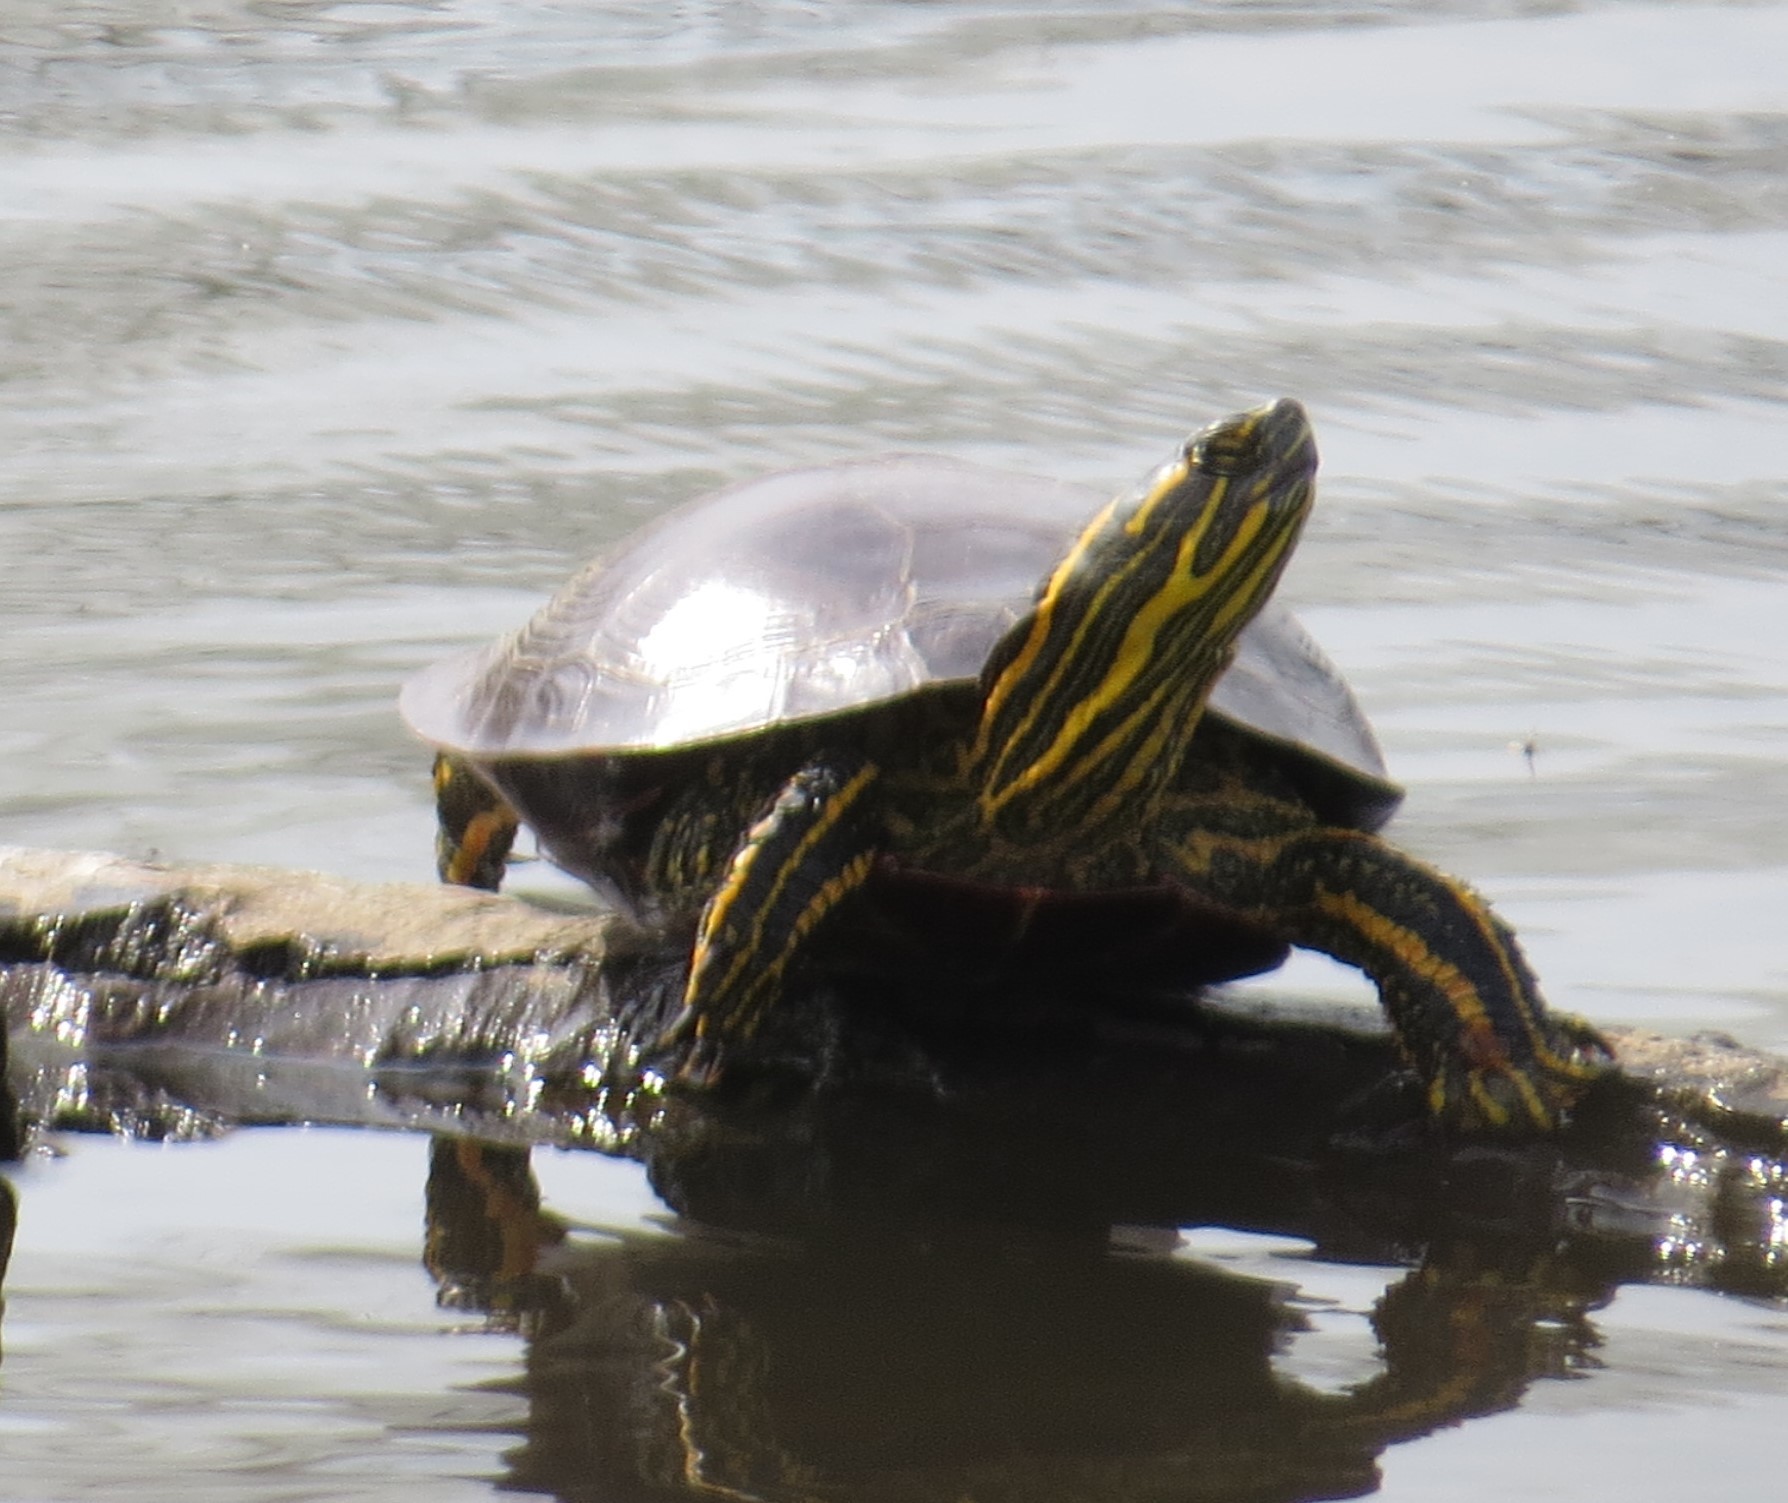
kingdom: Animalia
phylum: Chordata
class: Testudines
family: Emydidae
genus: Chrysemys
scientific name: Chrysemys picta
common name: Painted turtle
